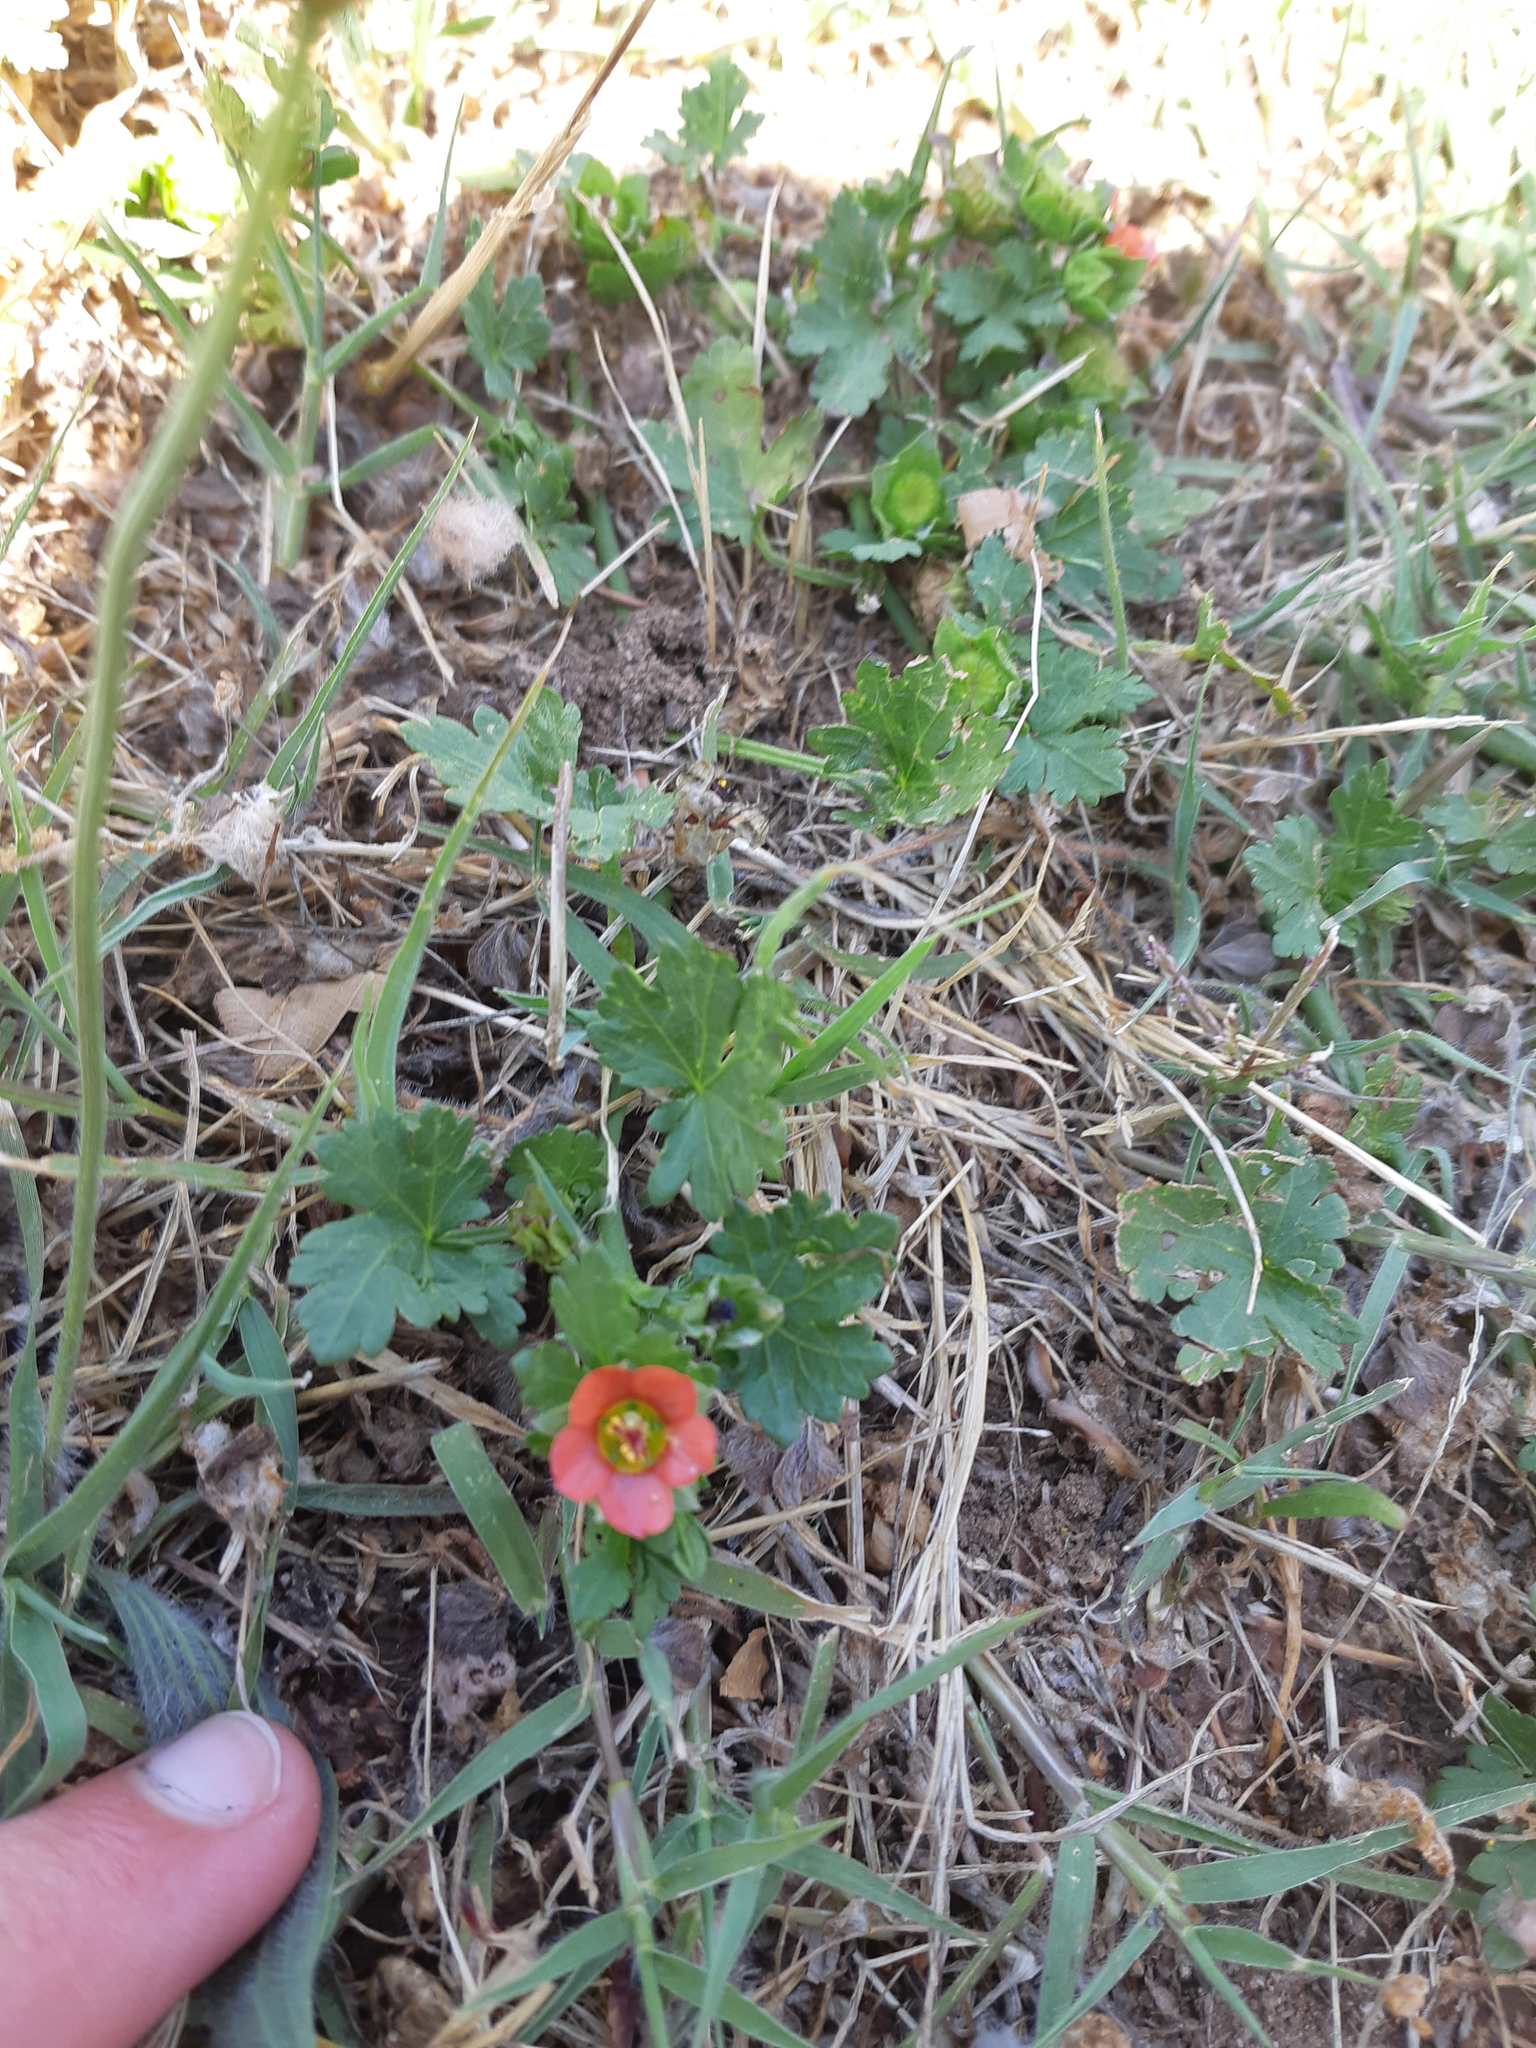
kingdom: Plantae
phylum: Tracheophyta
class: Magnoliopsida
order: Malvales
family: Malvaceae
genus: Modiola
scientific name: Modiola caroliniana
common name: Carolina bristlemallow
